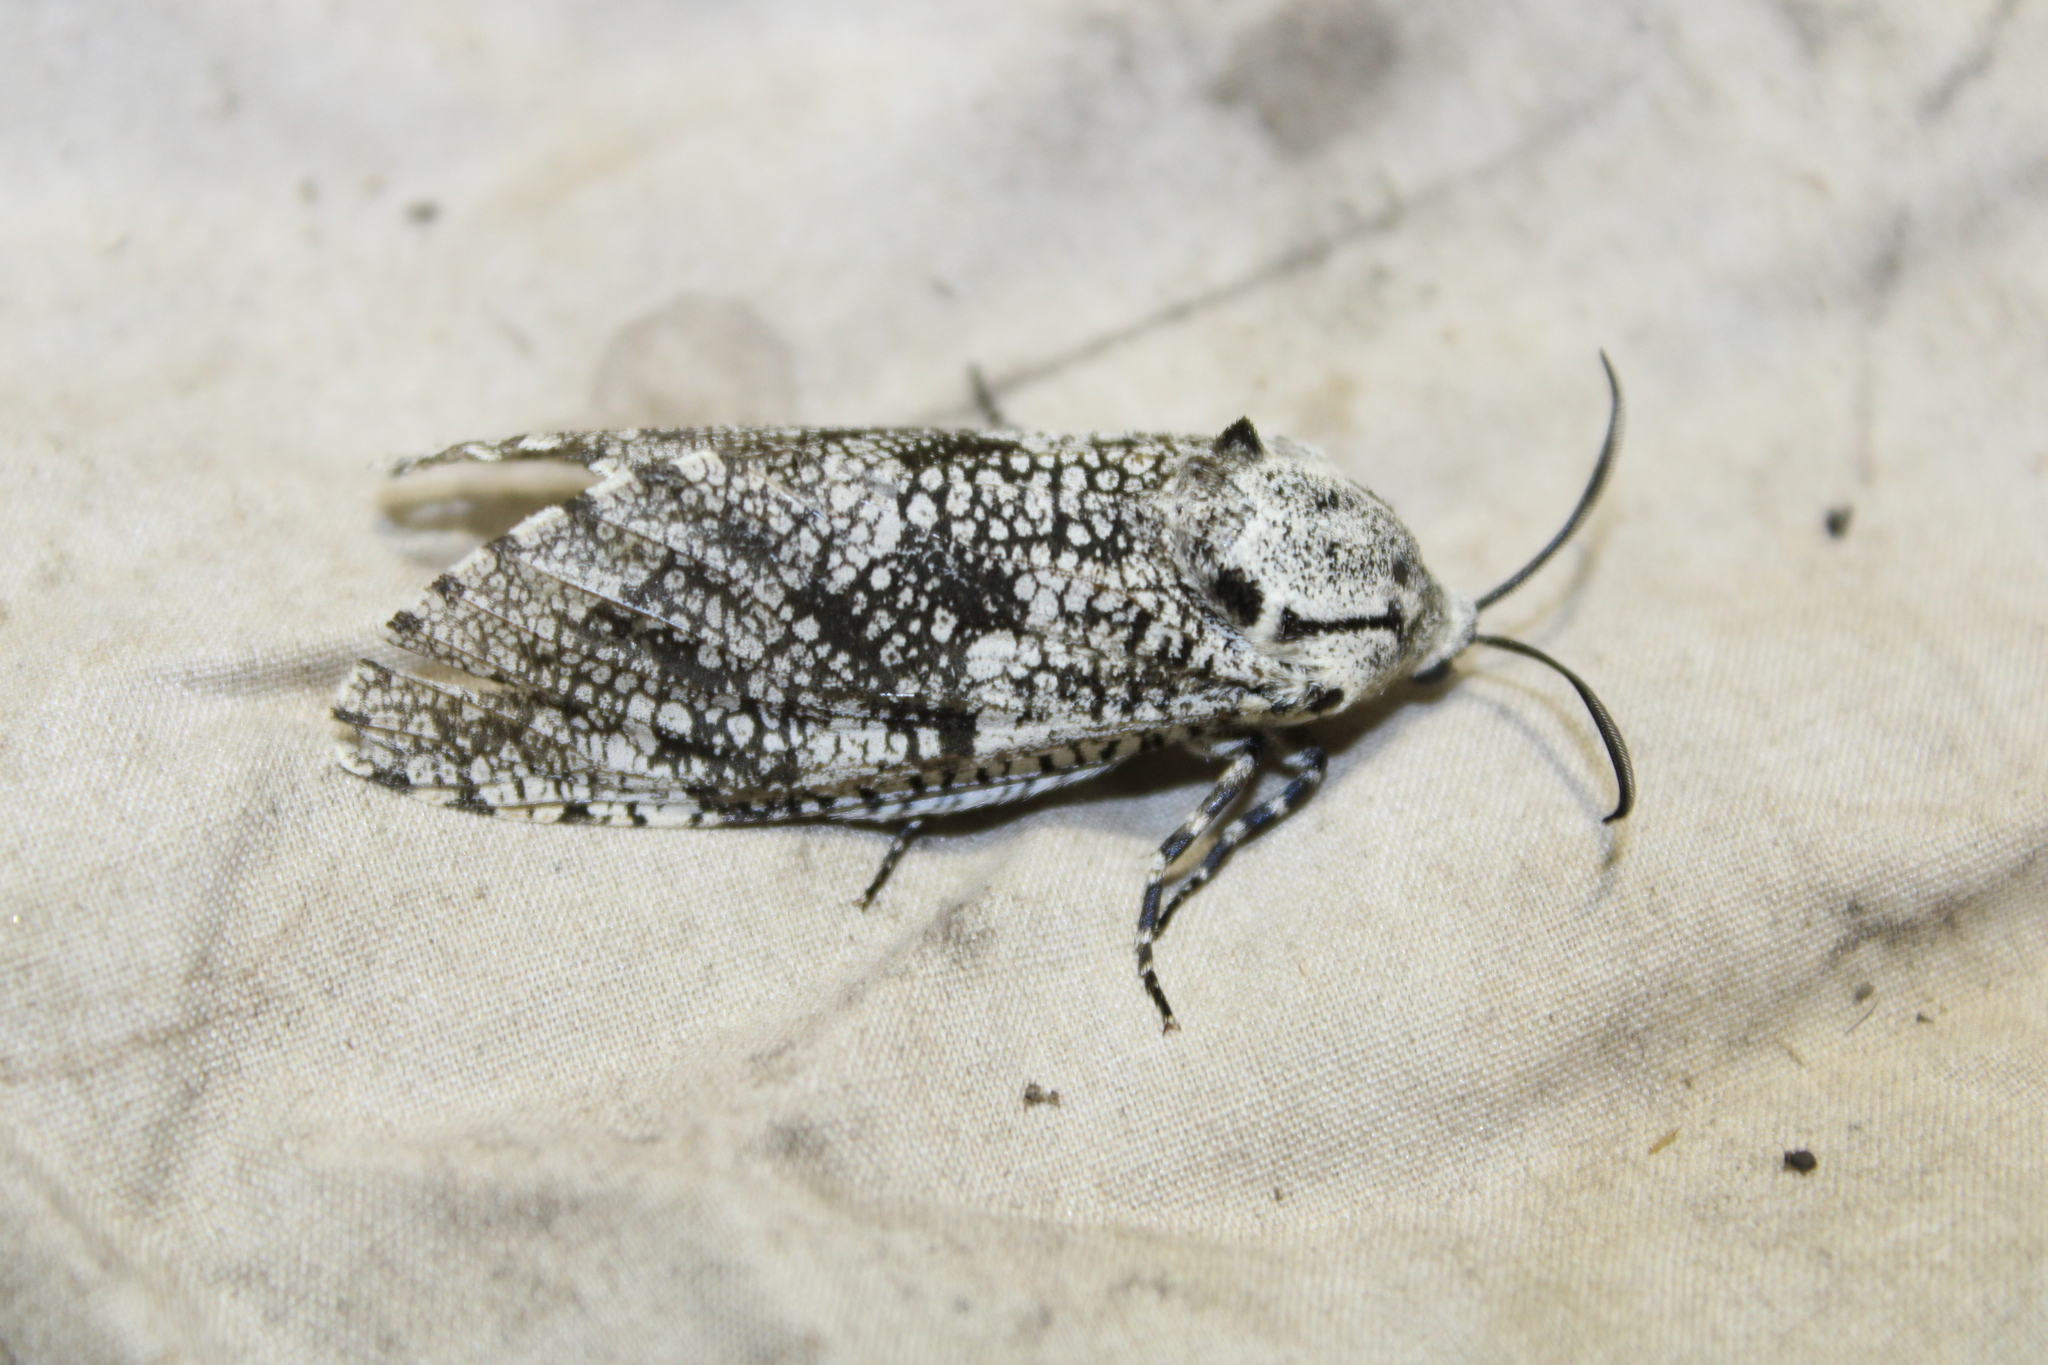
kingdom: Animalia
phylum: Arthropoda
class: Insecta
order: Lepidoptera
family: Cossidae
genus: Prionoxystus
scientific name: Prionoxystus robiniae
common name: Carpenterworm
